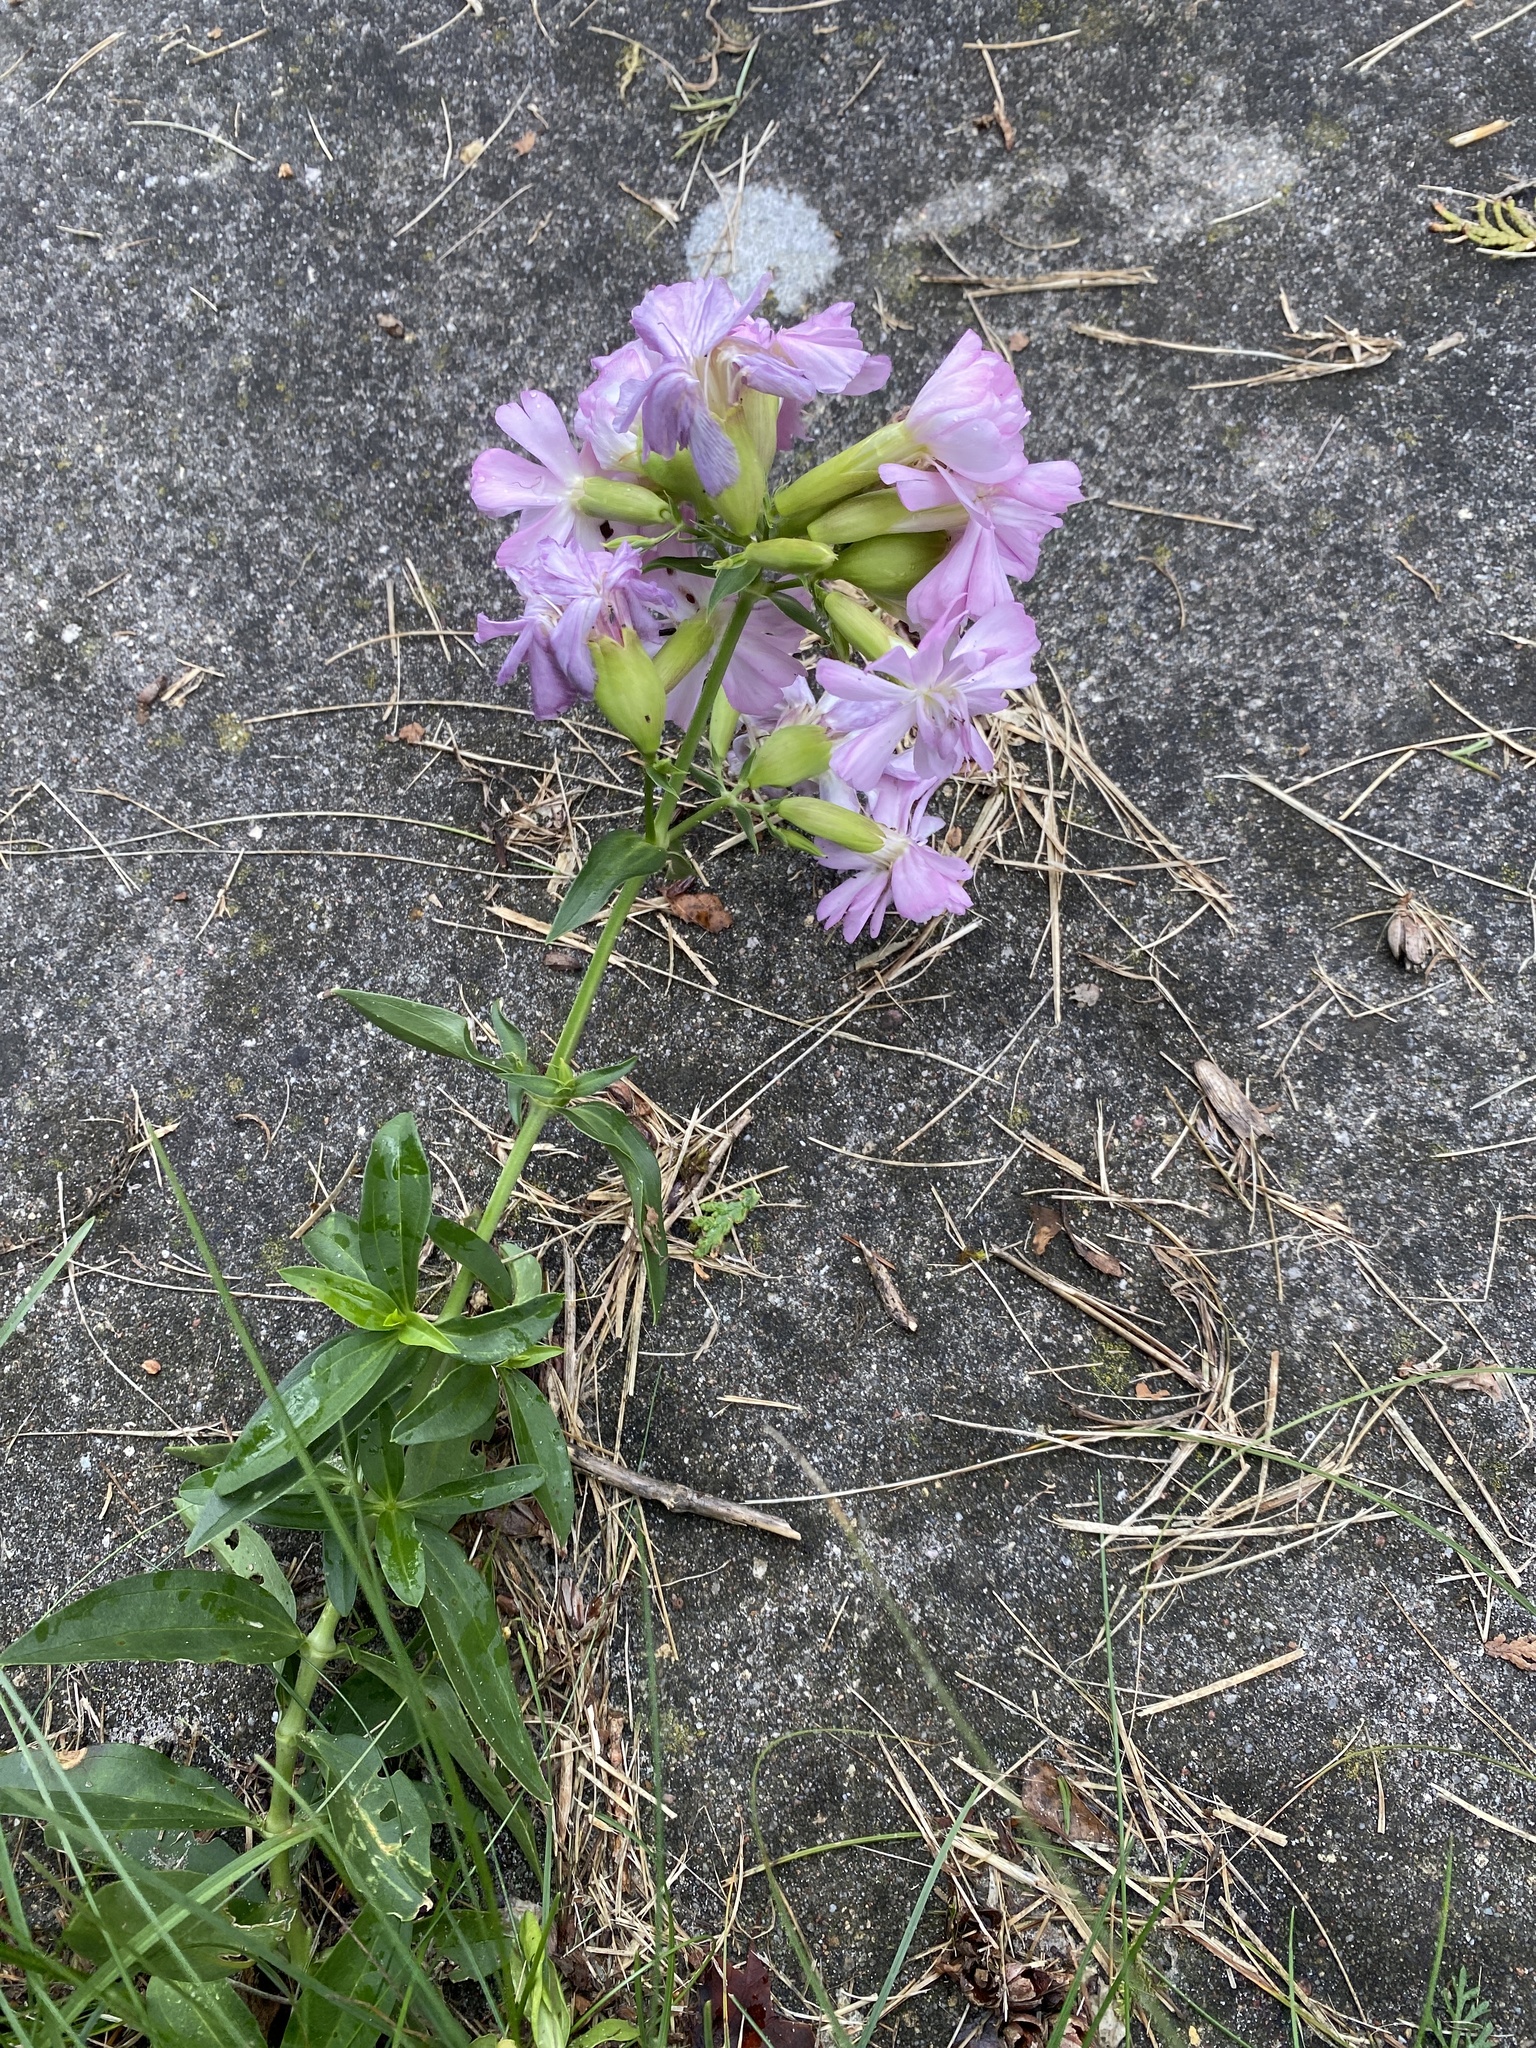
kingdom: Plantae
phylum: Tracheophyta
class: Magnoliopsida
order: Caryophyllales
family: Caryophyllaceae
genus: Saponaria
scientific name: Saponaria officinalis
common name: Soapwort
